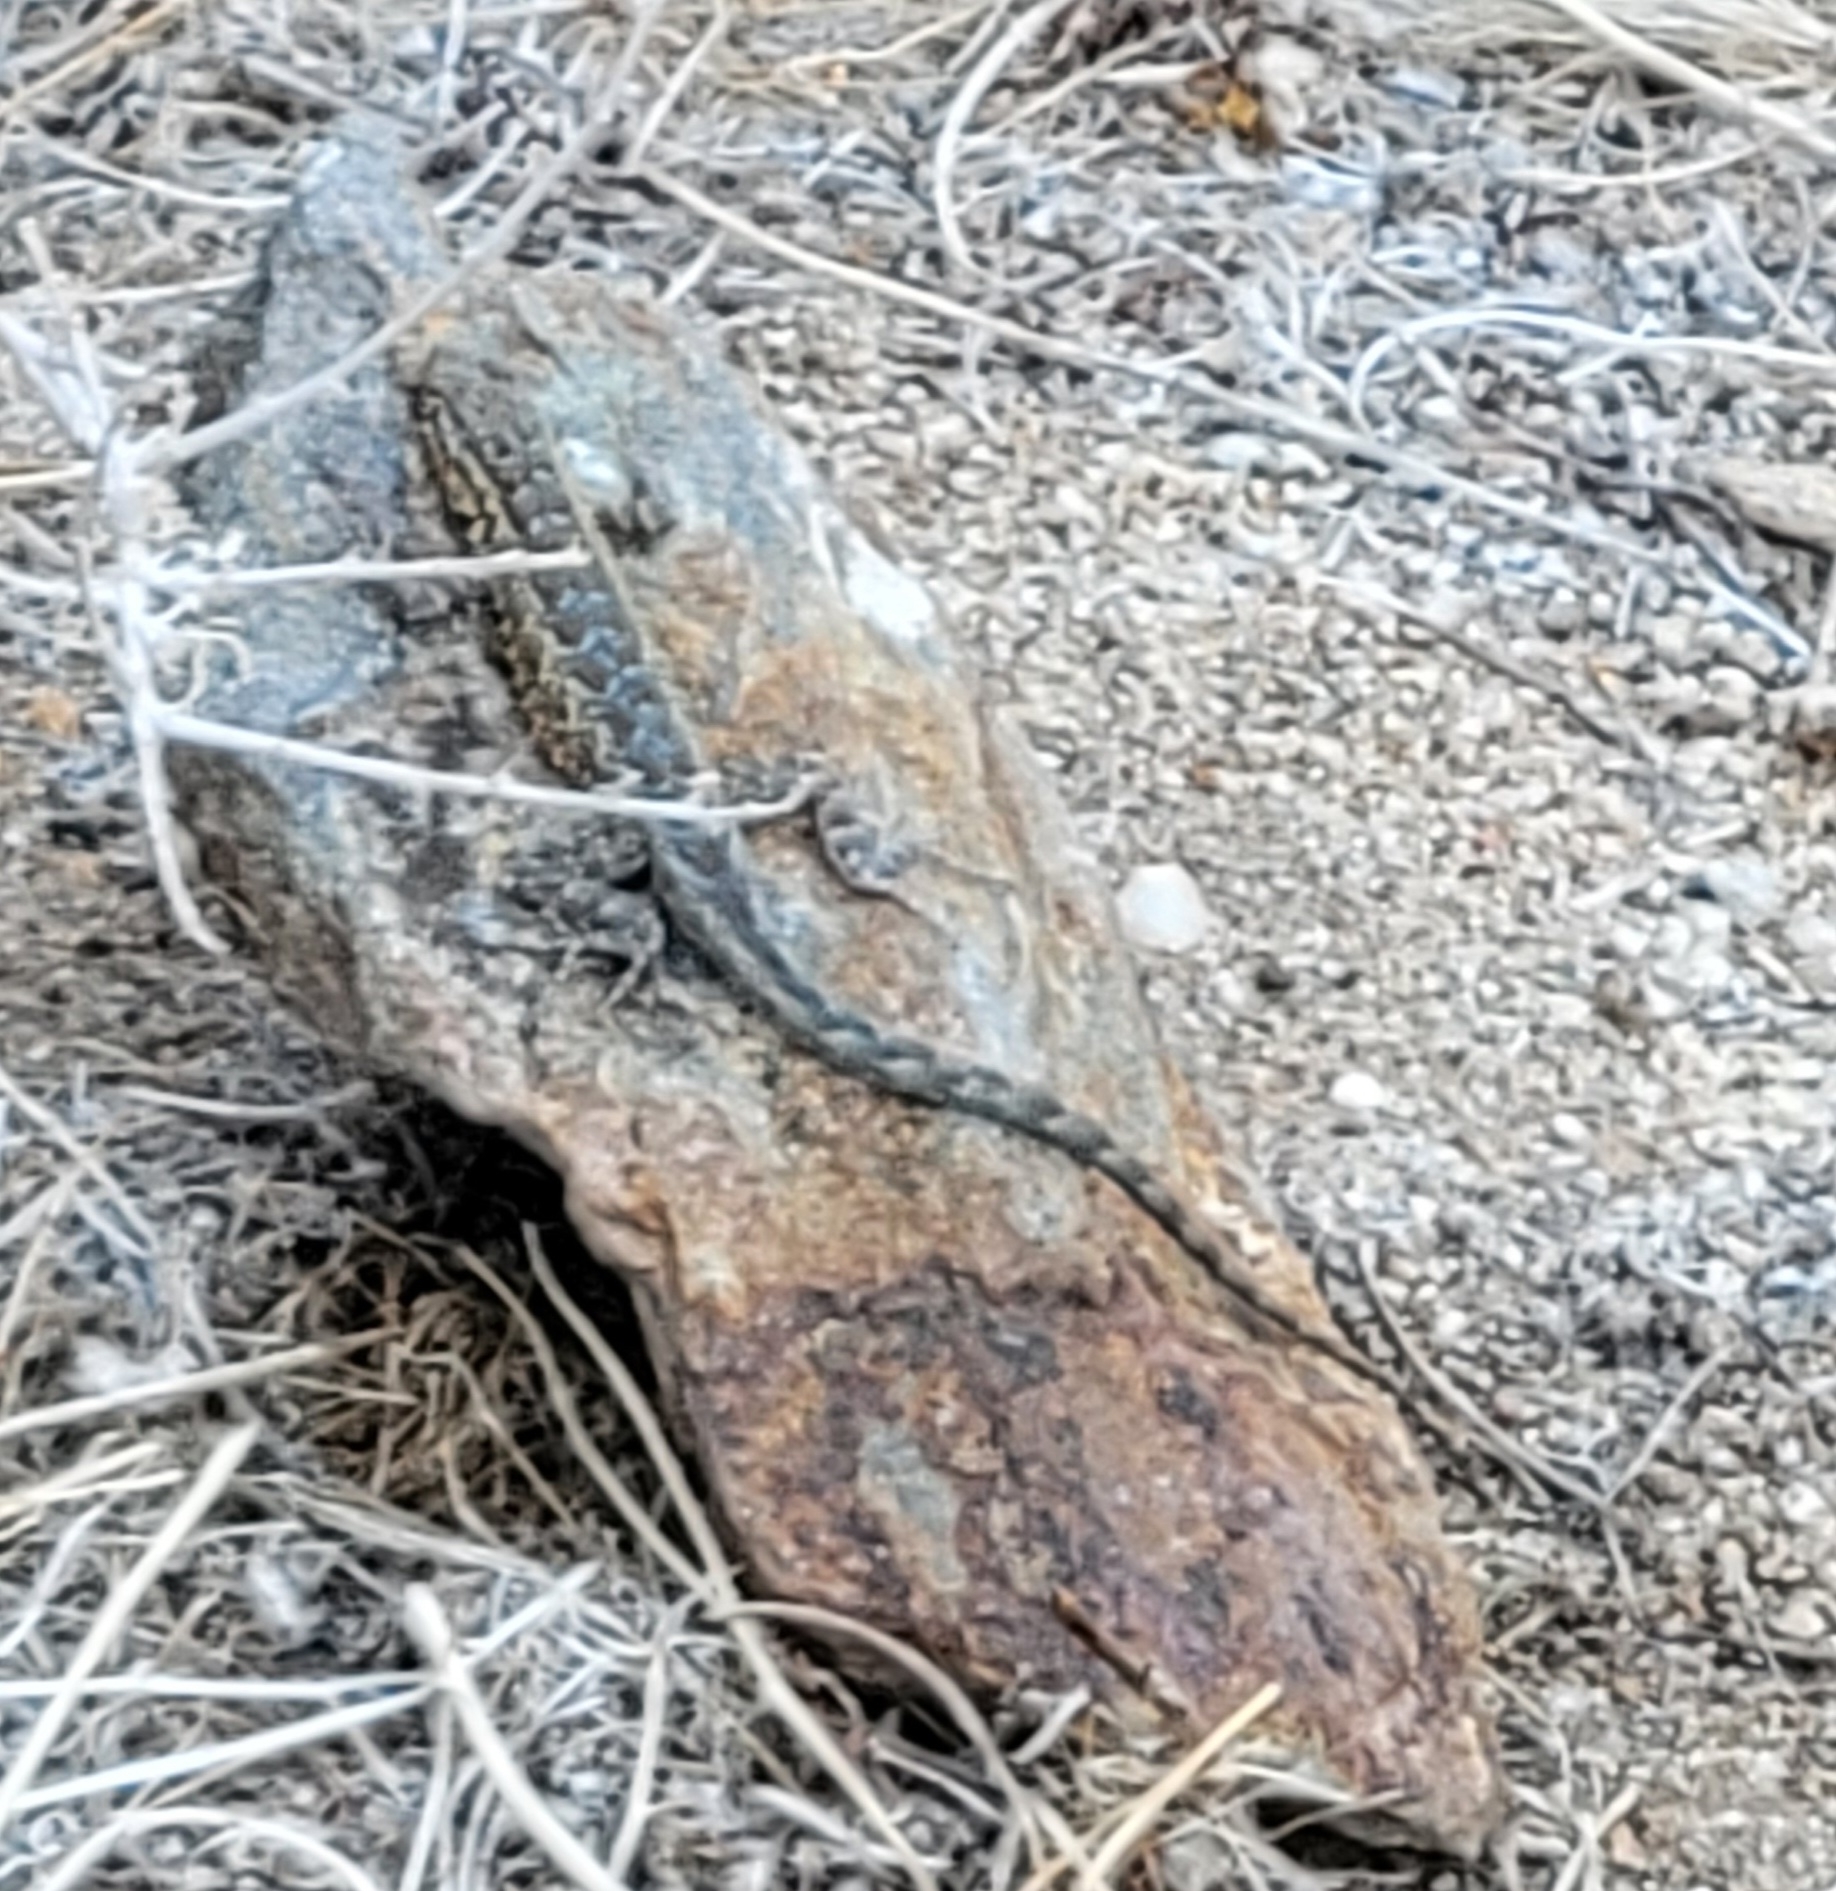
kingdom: Animalia
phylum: Chordata
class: Squamata
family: Phrynosomatidae
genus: Uta
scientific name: Uta stansburiana
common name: Side-blotched lizard
